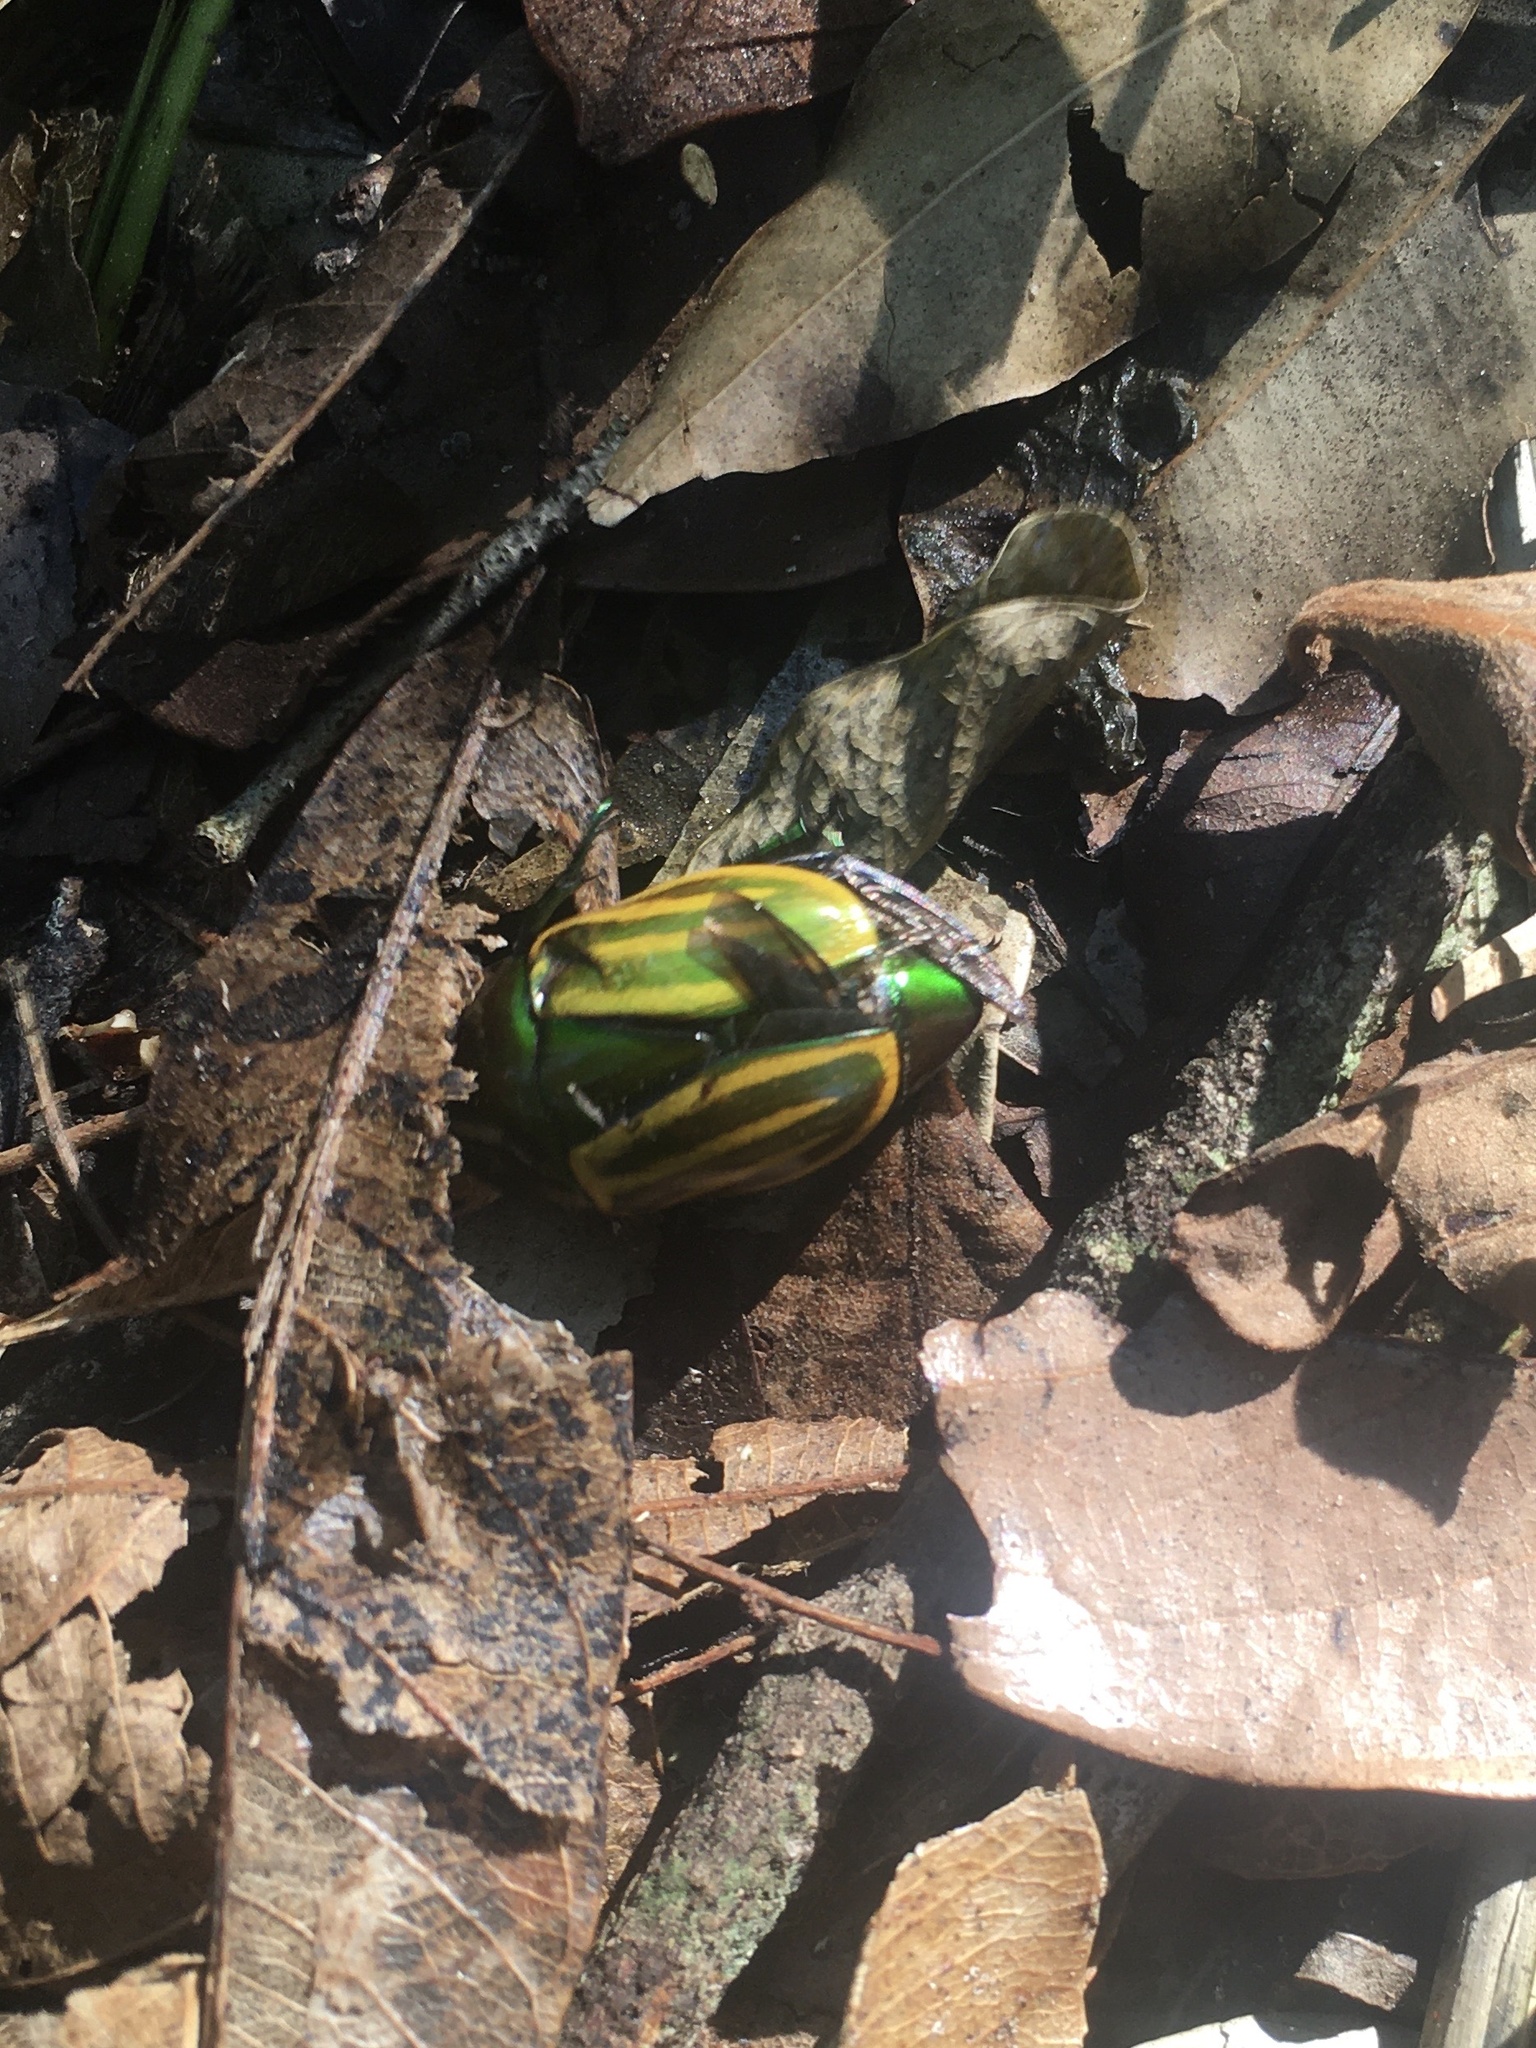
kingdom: Animalia
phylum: Arthropoda
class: Insecta
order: Coleoptera
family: Scarabaeidae
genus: Macraspis
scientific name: Macraspis festiva
